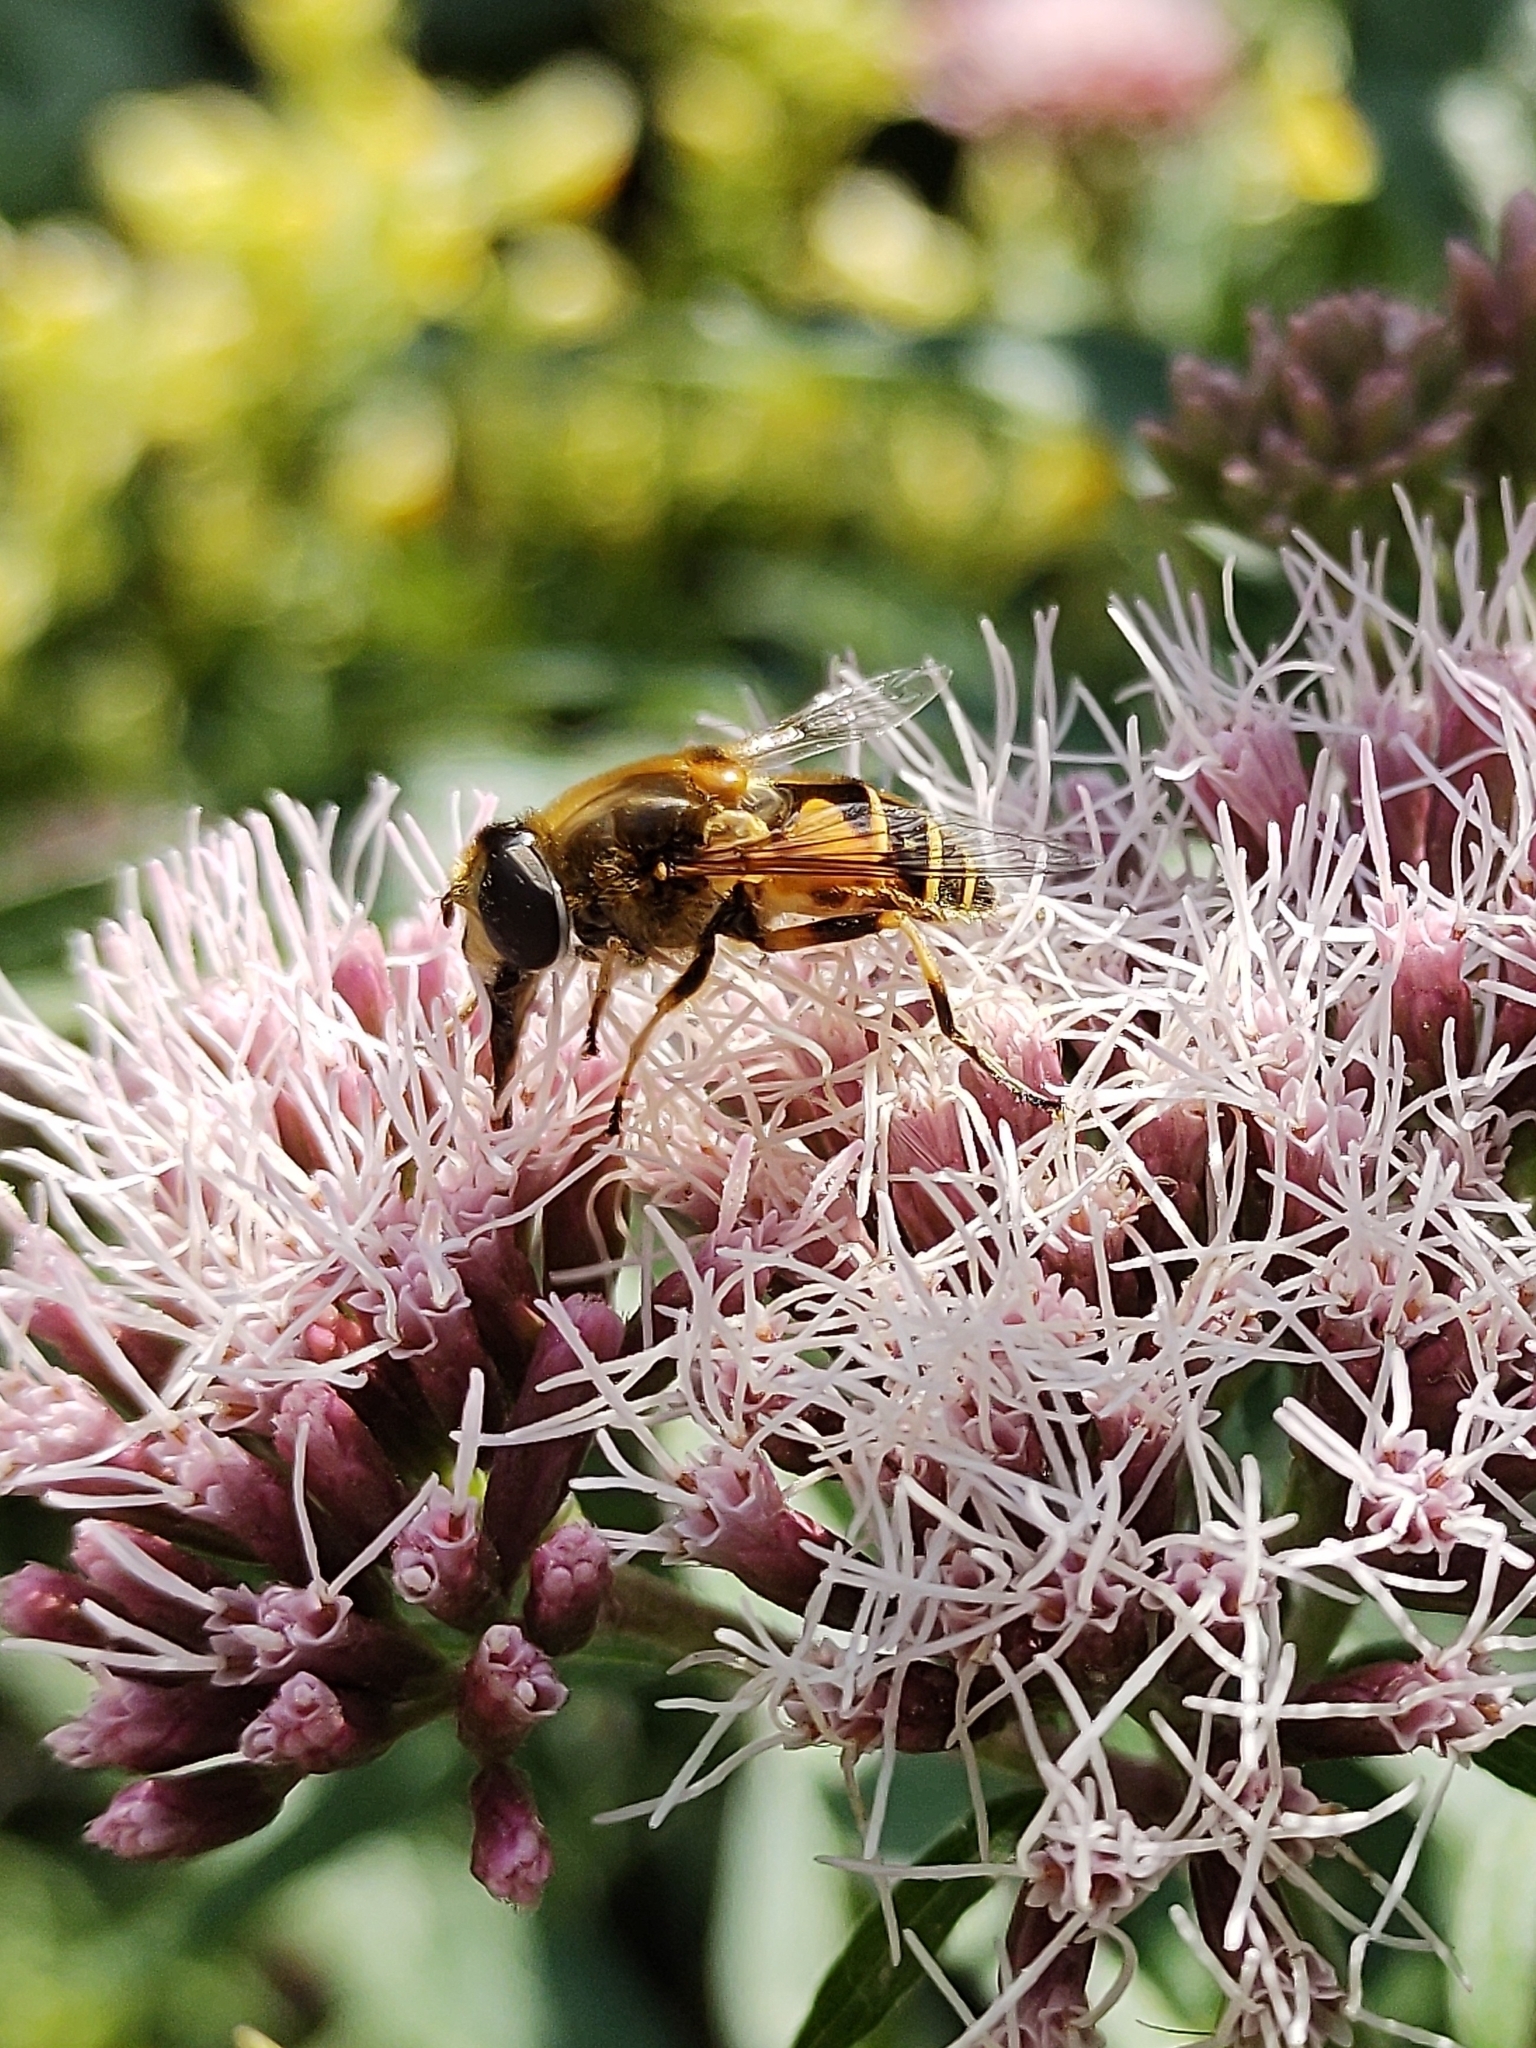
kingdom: Animalia
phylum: Arthropoda
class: Insecta
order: Diptera
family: Syrphidae
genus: Cheilosia
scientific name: Cheilosia morio
